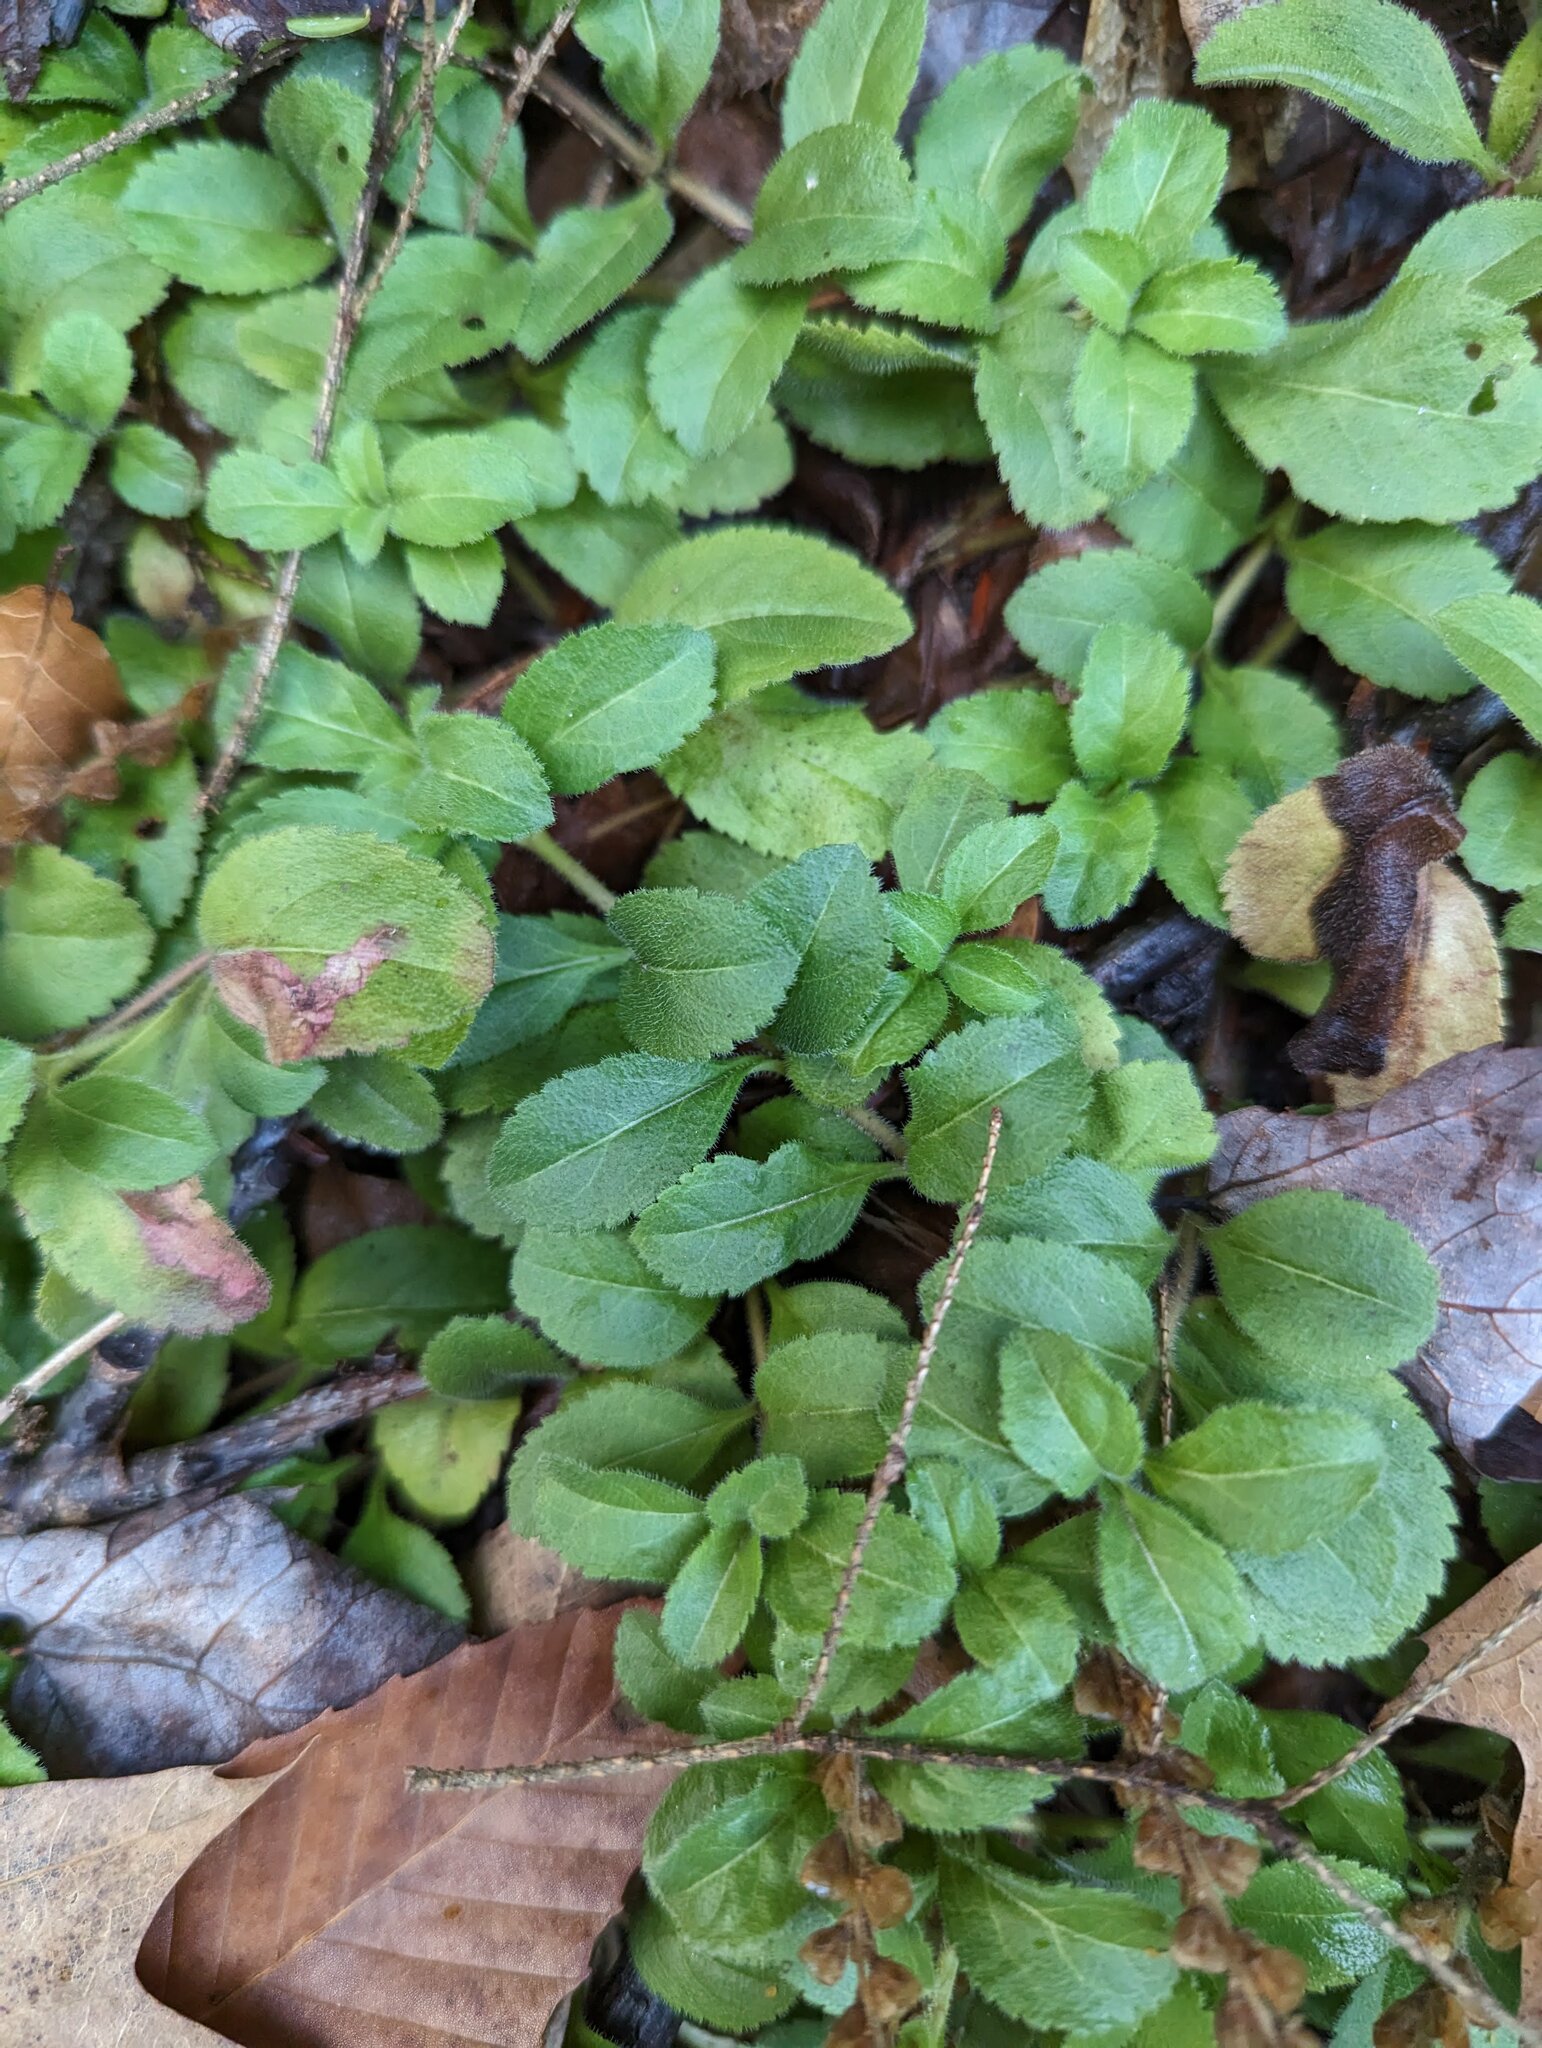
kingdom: Plantae
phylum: Tracheophyta
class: Magnoliopsida
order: Lamiales
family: Plantaginaceae
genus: Veronica
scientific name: Veronica officinalis
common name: Common speedwell
